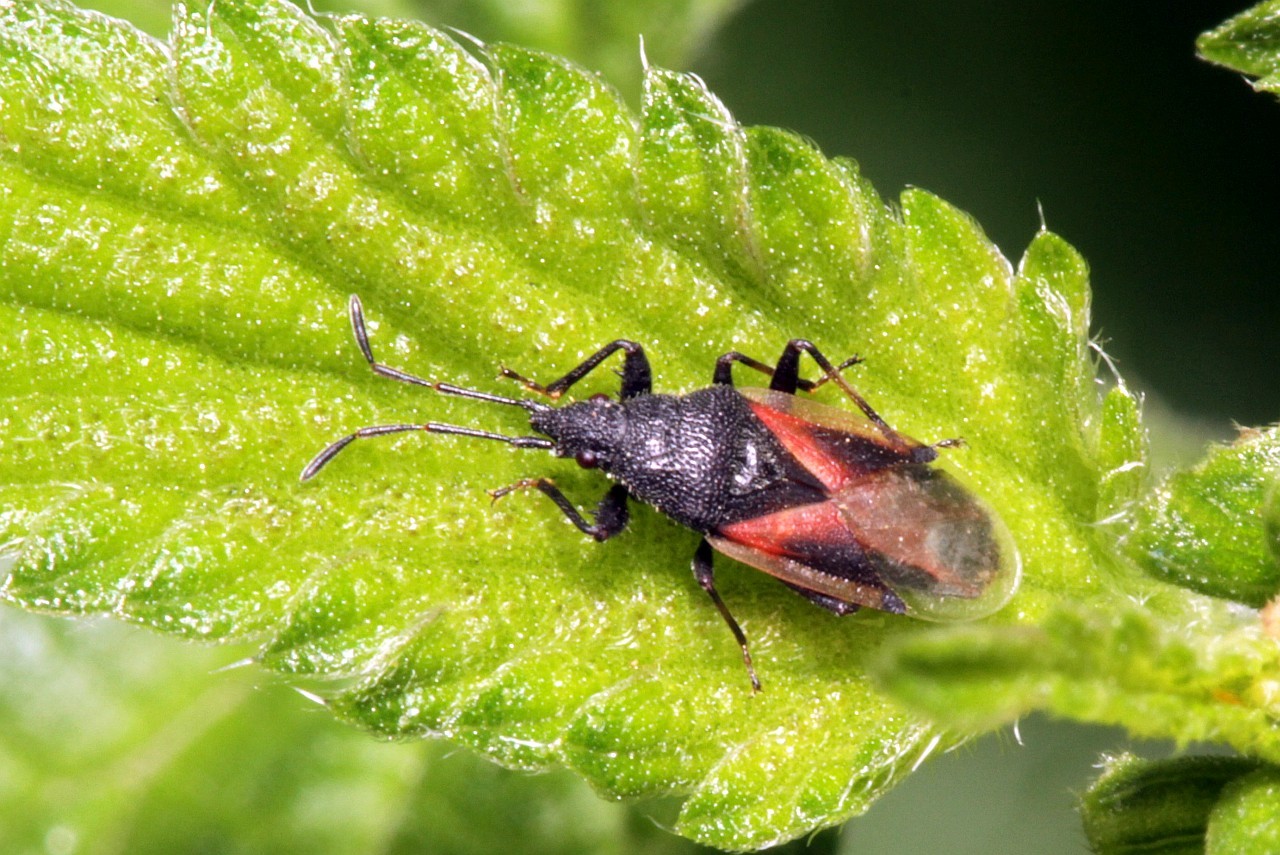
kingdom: Animalia
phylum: Arthropoda
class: Insecta
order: Hemiptera
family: Oxycarenidae
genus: Oxycarenus
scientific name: Oxycarenus lavaterae
